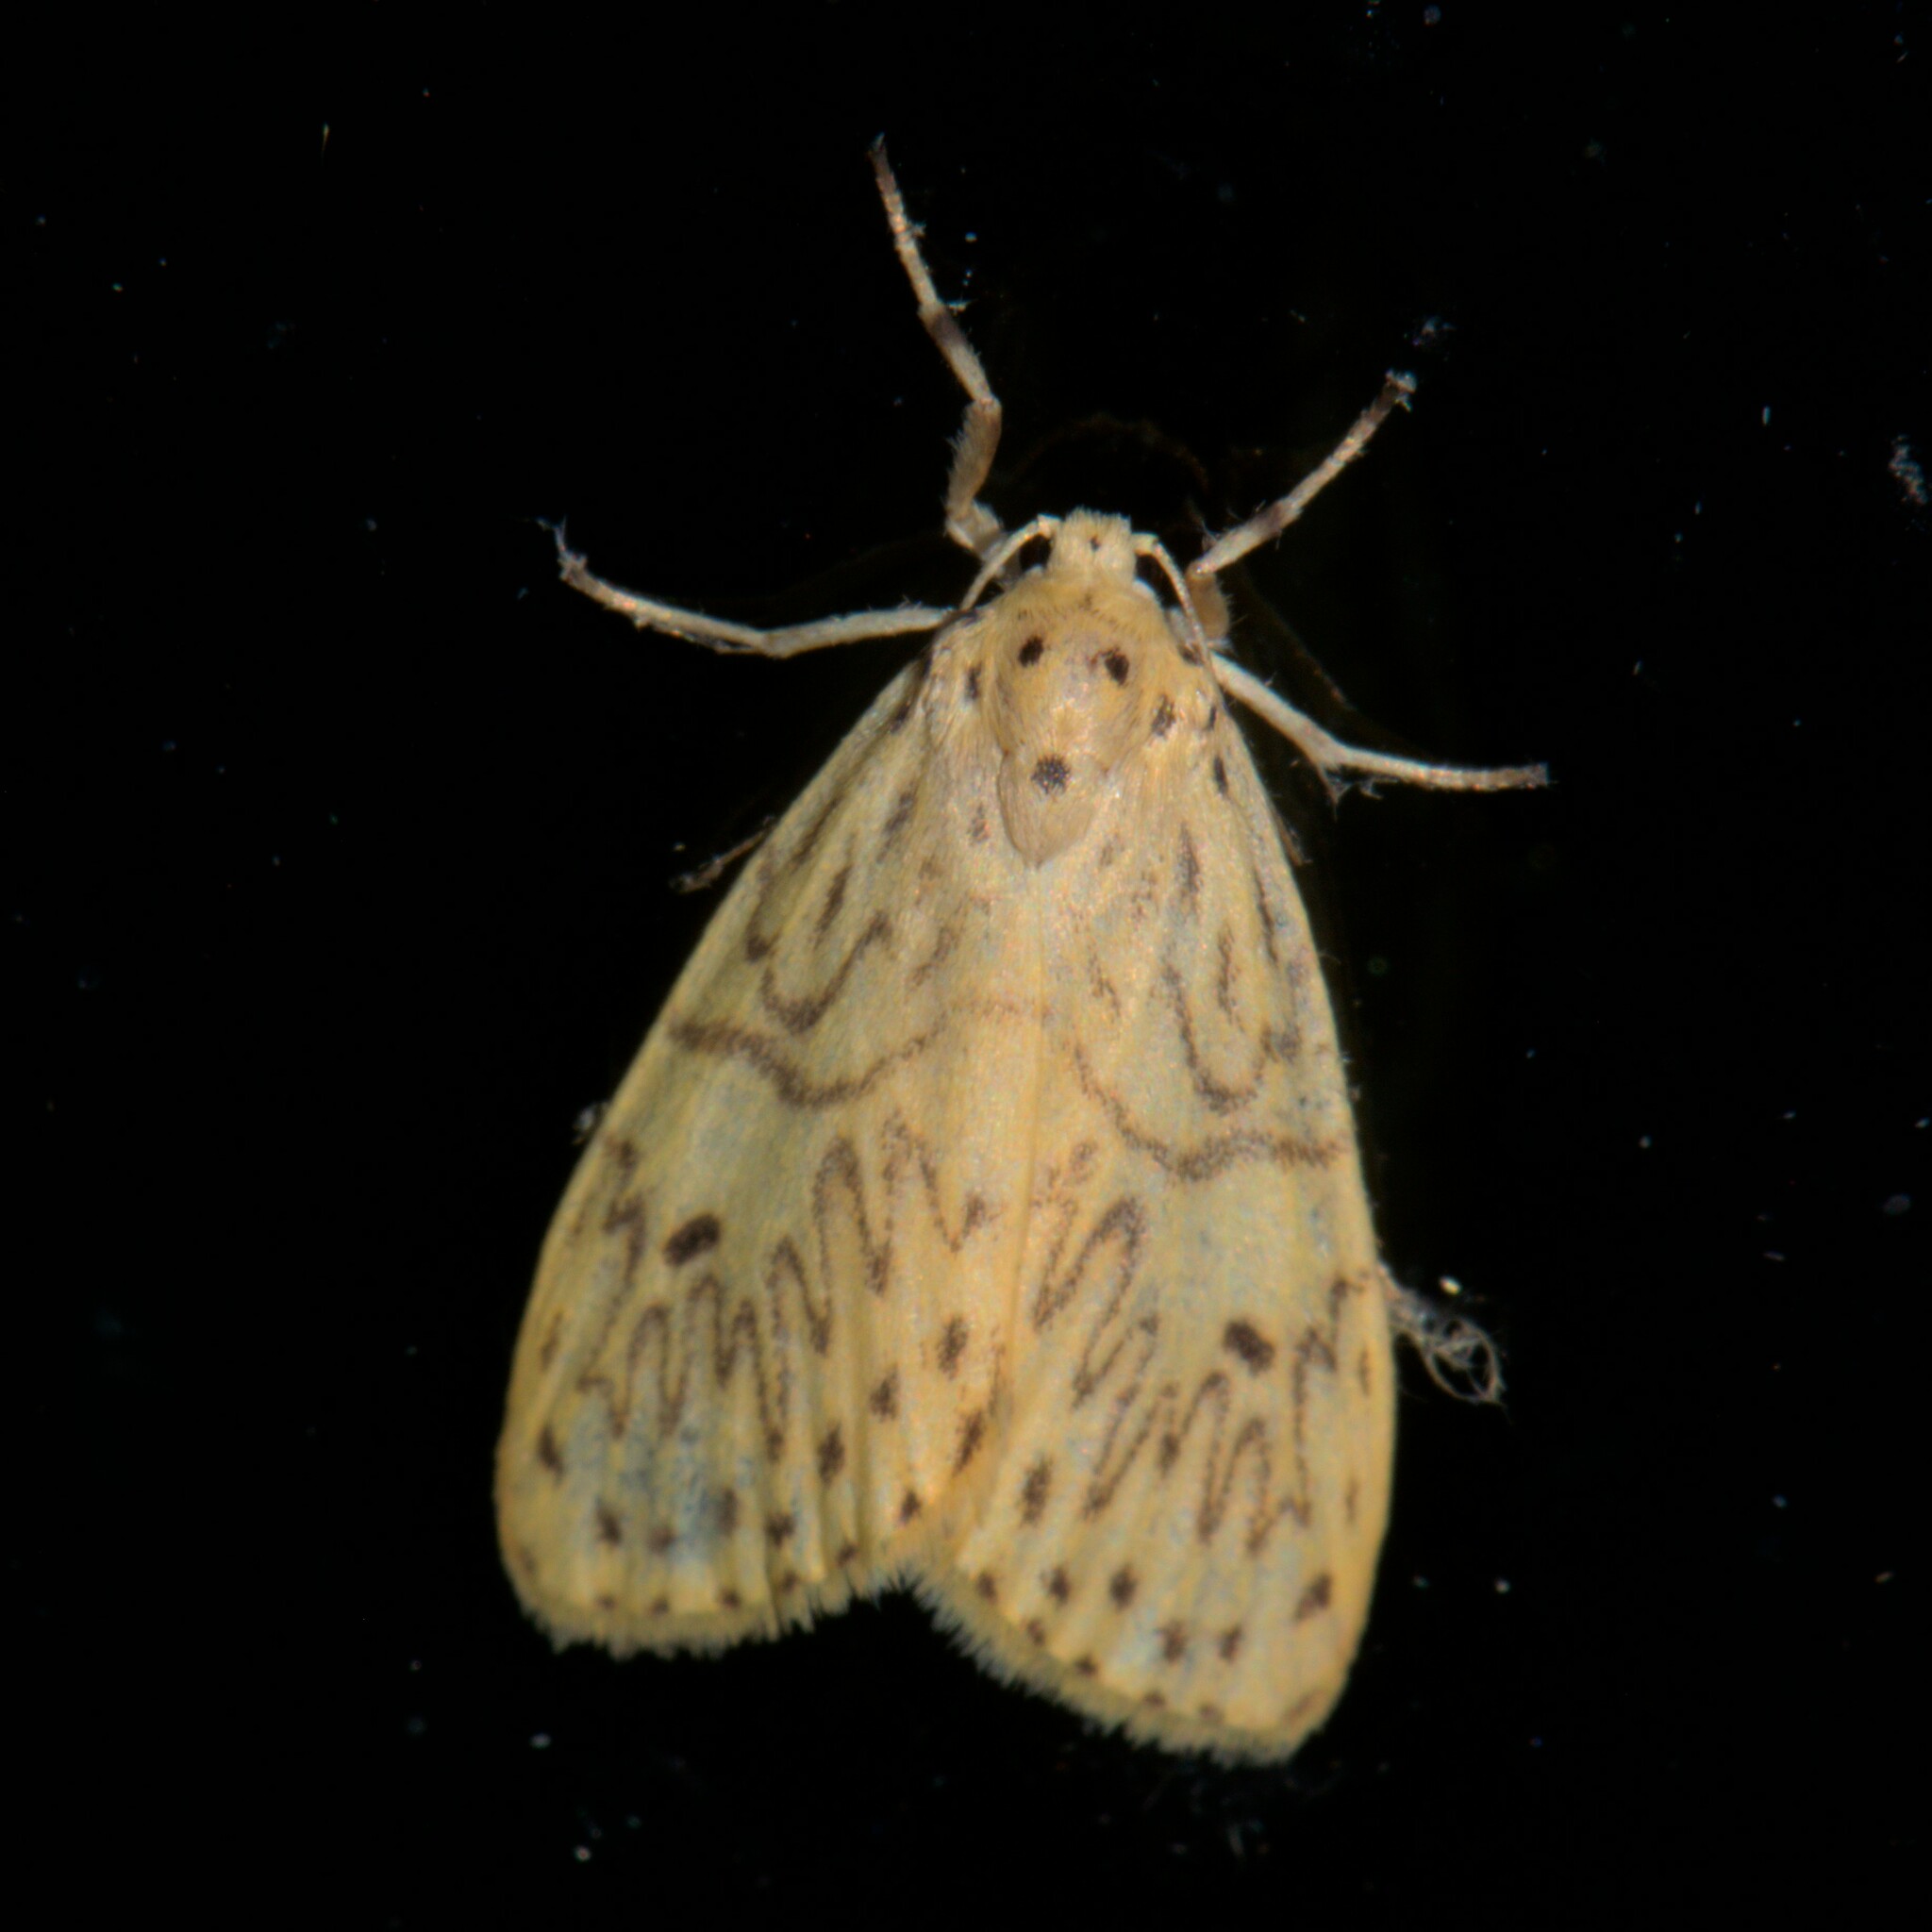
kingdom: Animalia
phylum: Arthropoda
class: Insecta
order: Lepidoptera
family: Erebidae
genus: Miltochrista
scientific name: Miltochrista undulosa
